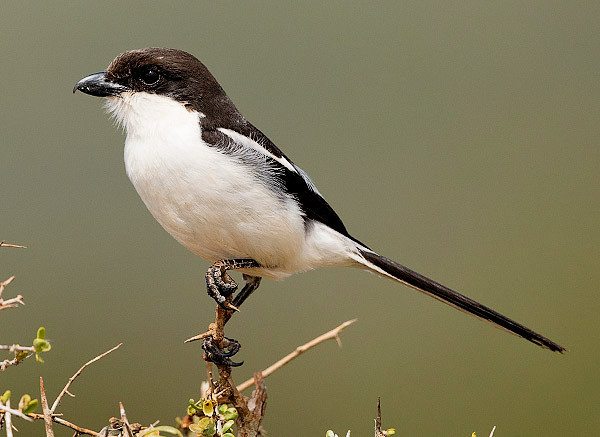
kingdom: Animalia
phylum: Chordata
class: Aves
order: Passeriformes
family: Laniidae
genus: Lanius
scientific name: Lanius collaris
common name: Southern fiscal
